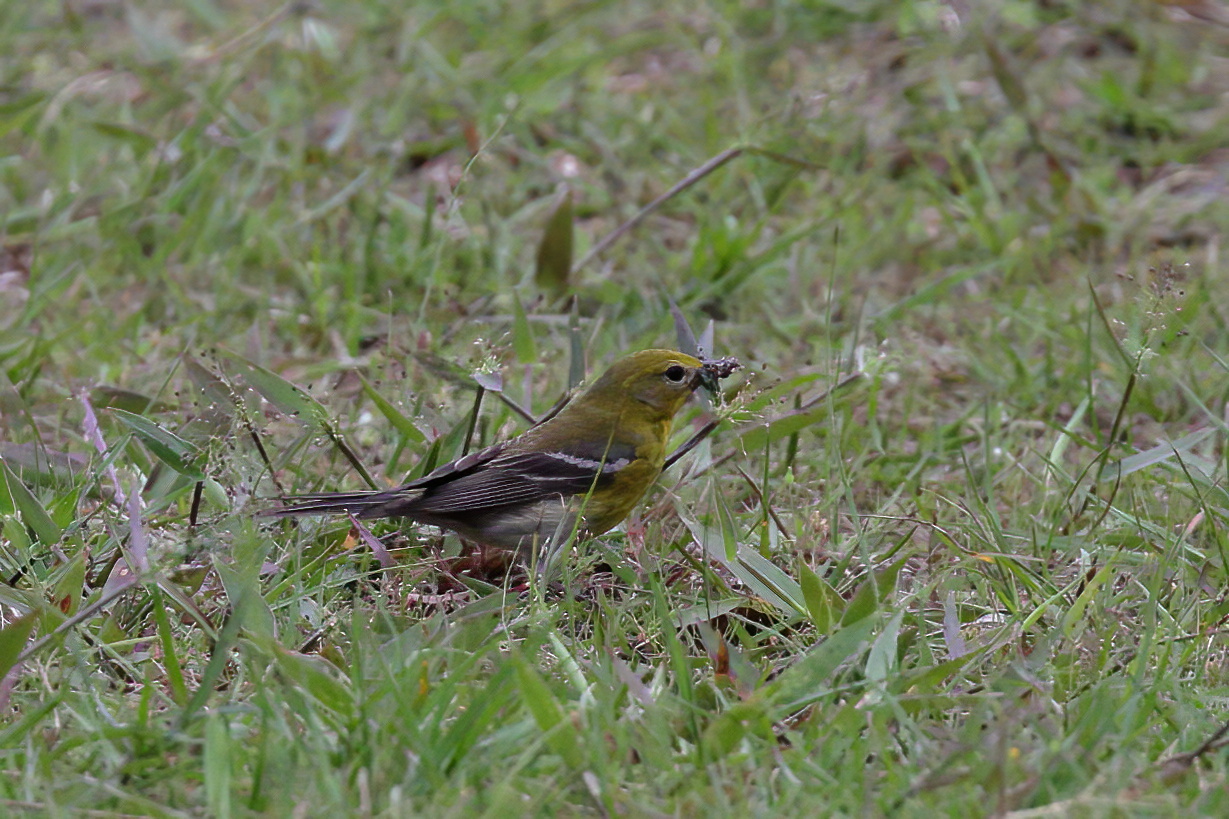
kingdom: Animalia
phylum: Chordata
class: Aves
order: Passeriformes
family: Parulidae
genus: Setophaga
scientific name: Setophaga pinus
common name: Pine warbler
